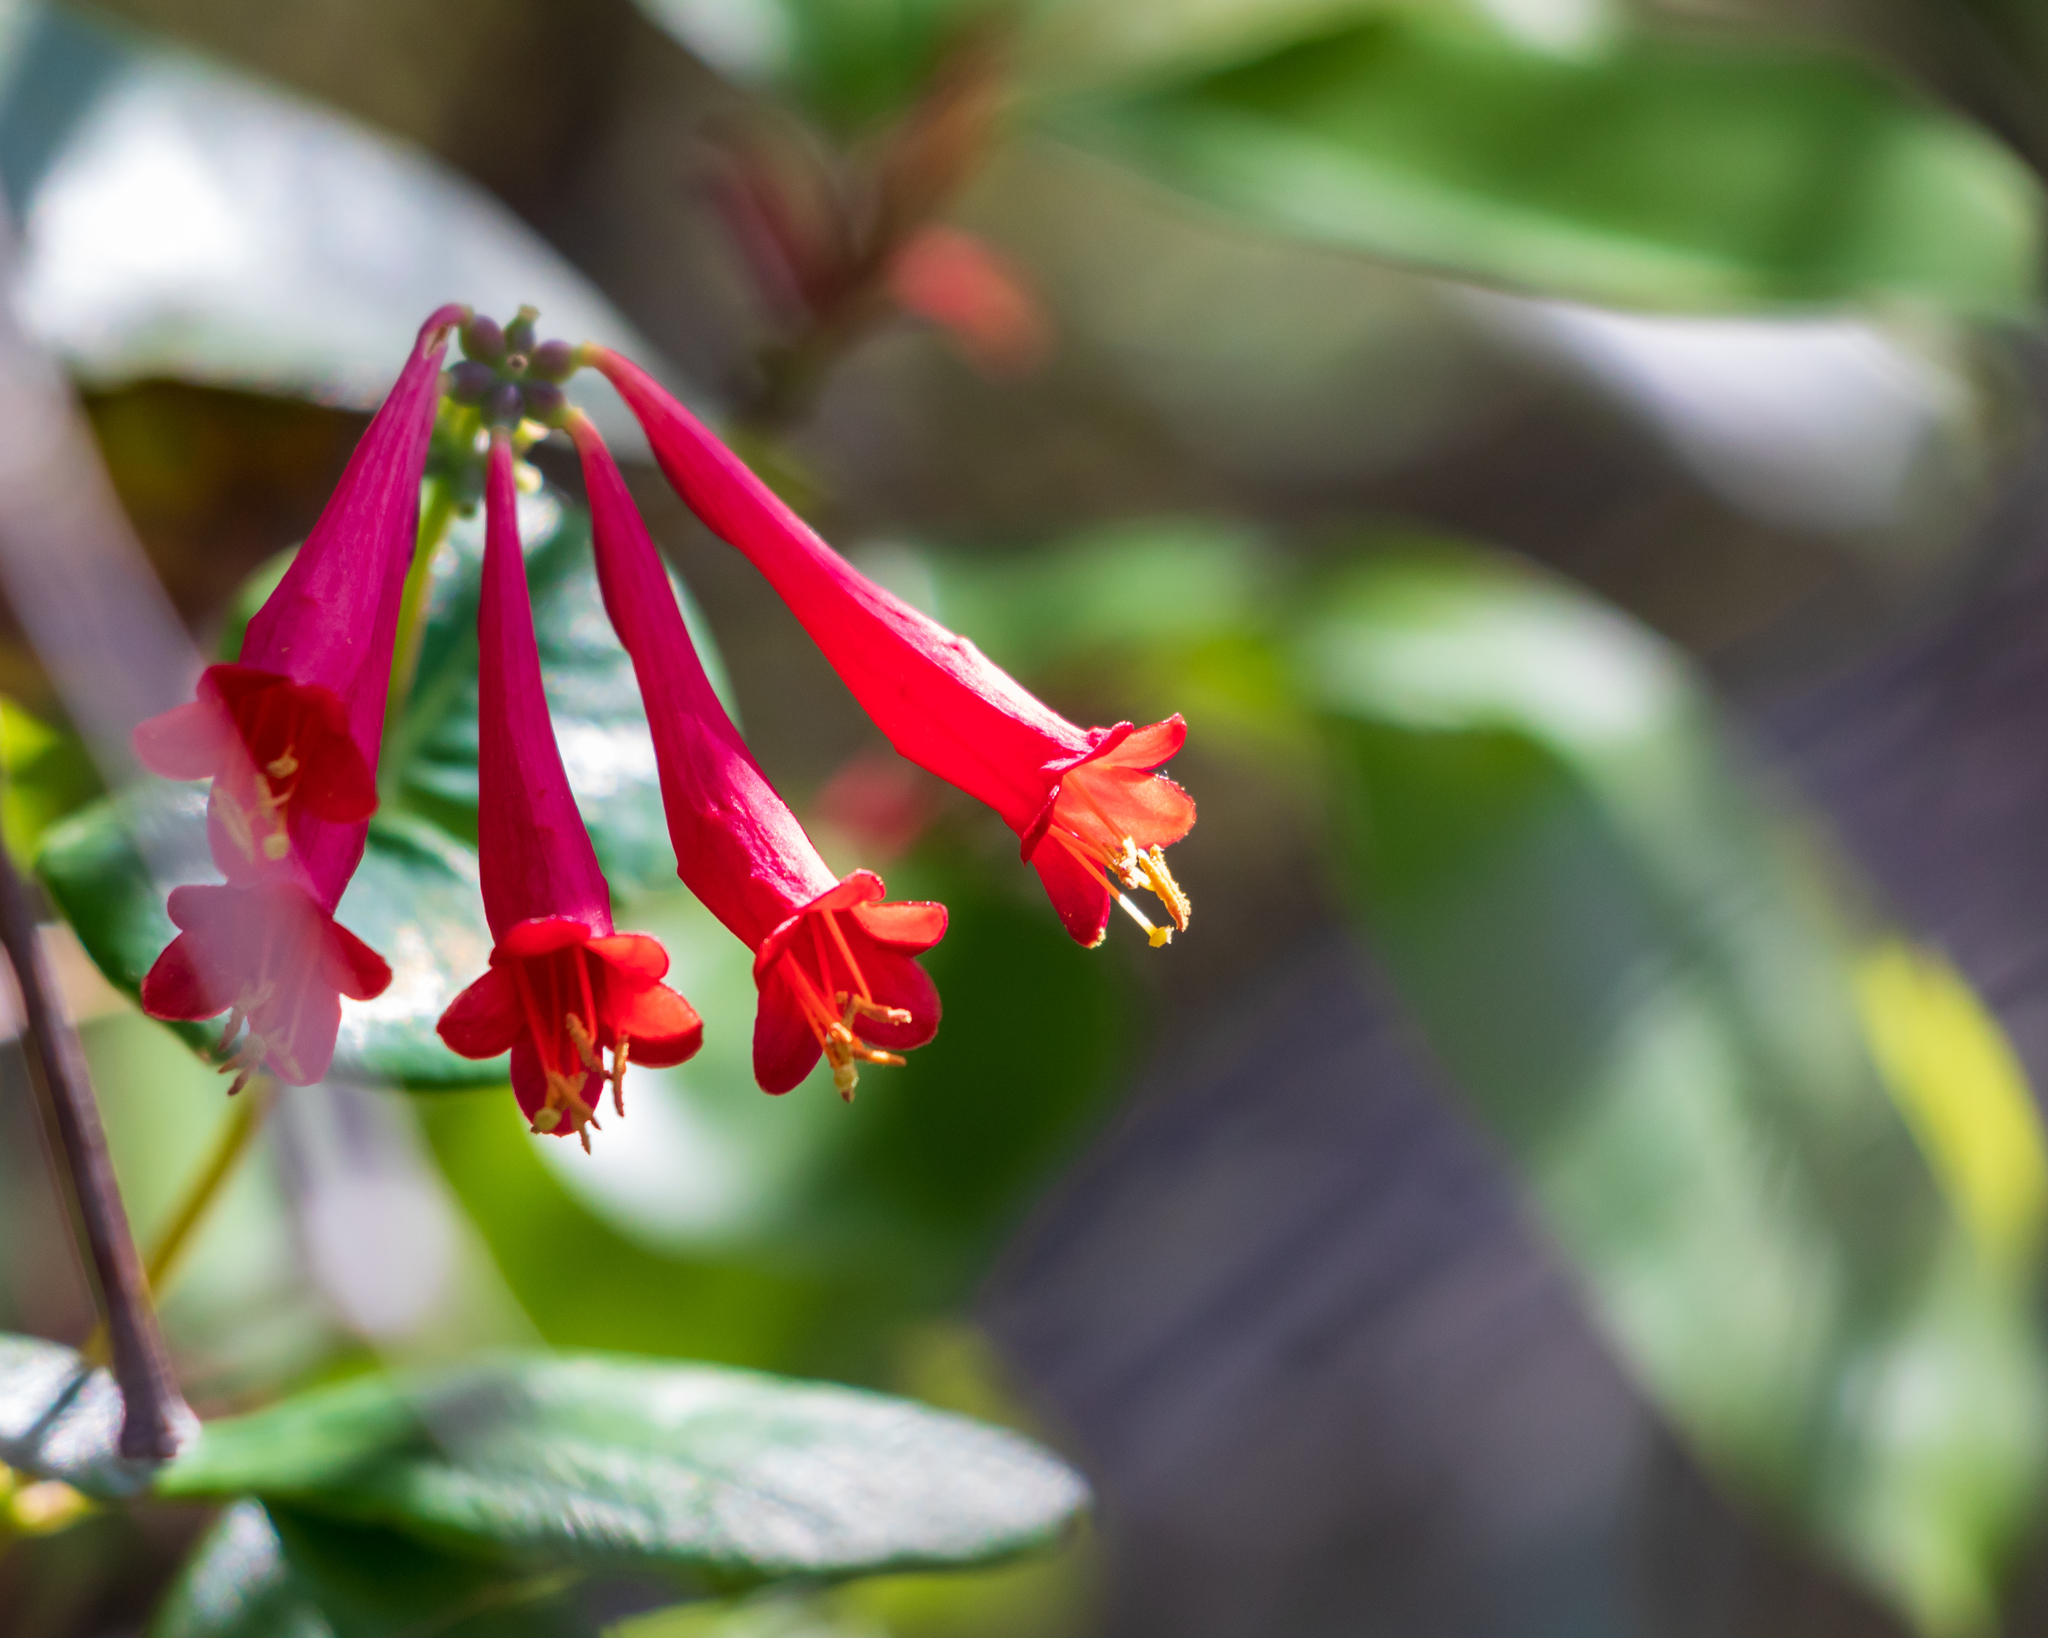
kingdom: Plantae
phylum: Tracheophyta
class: Magnoliopsida
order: Dipsacales
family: Caprifoliaceae
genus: Lonicera
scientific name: Lonicera sempervirens
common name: Coral honeysuckle
